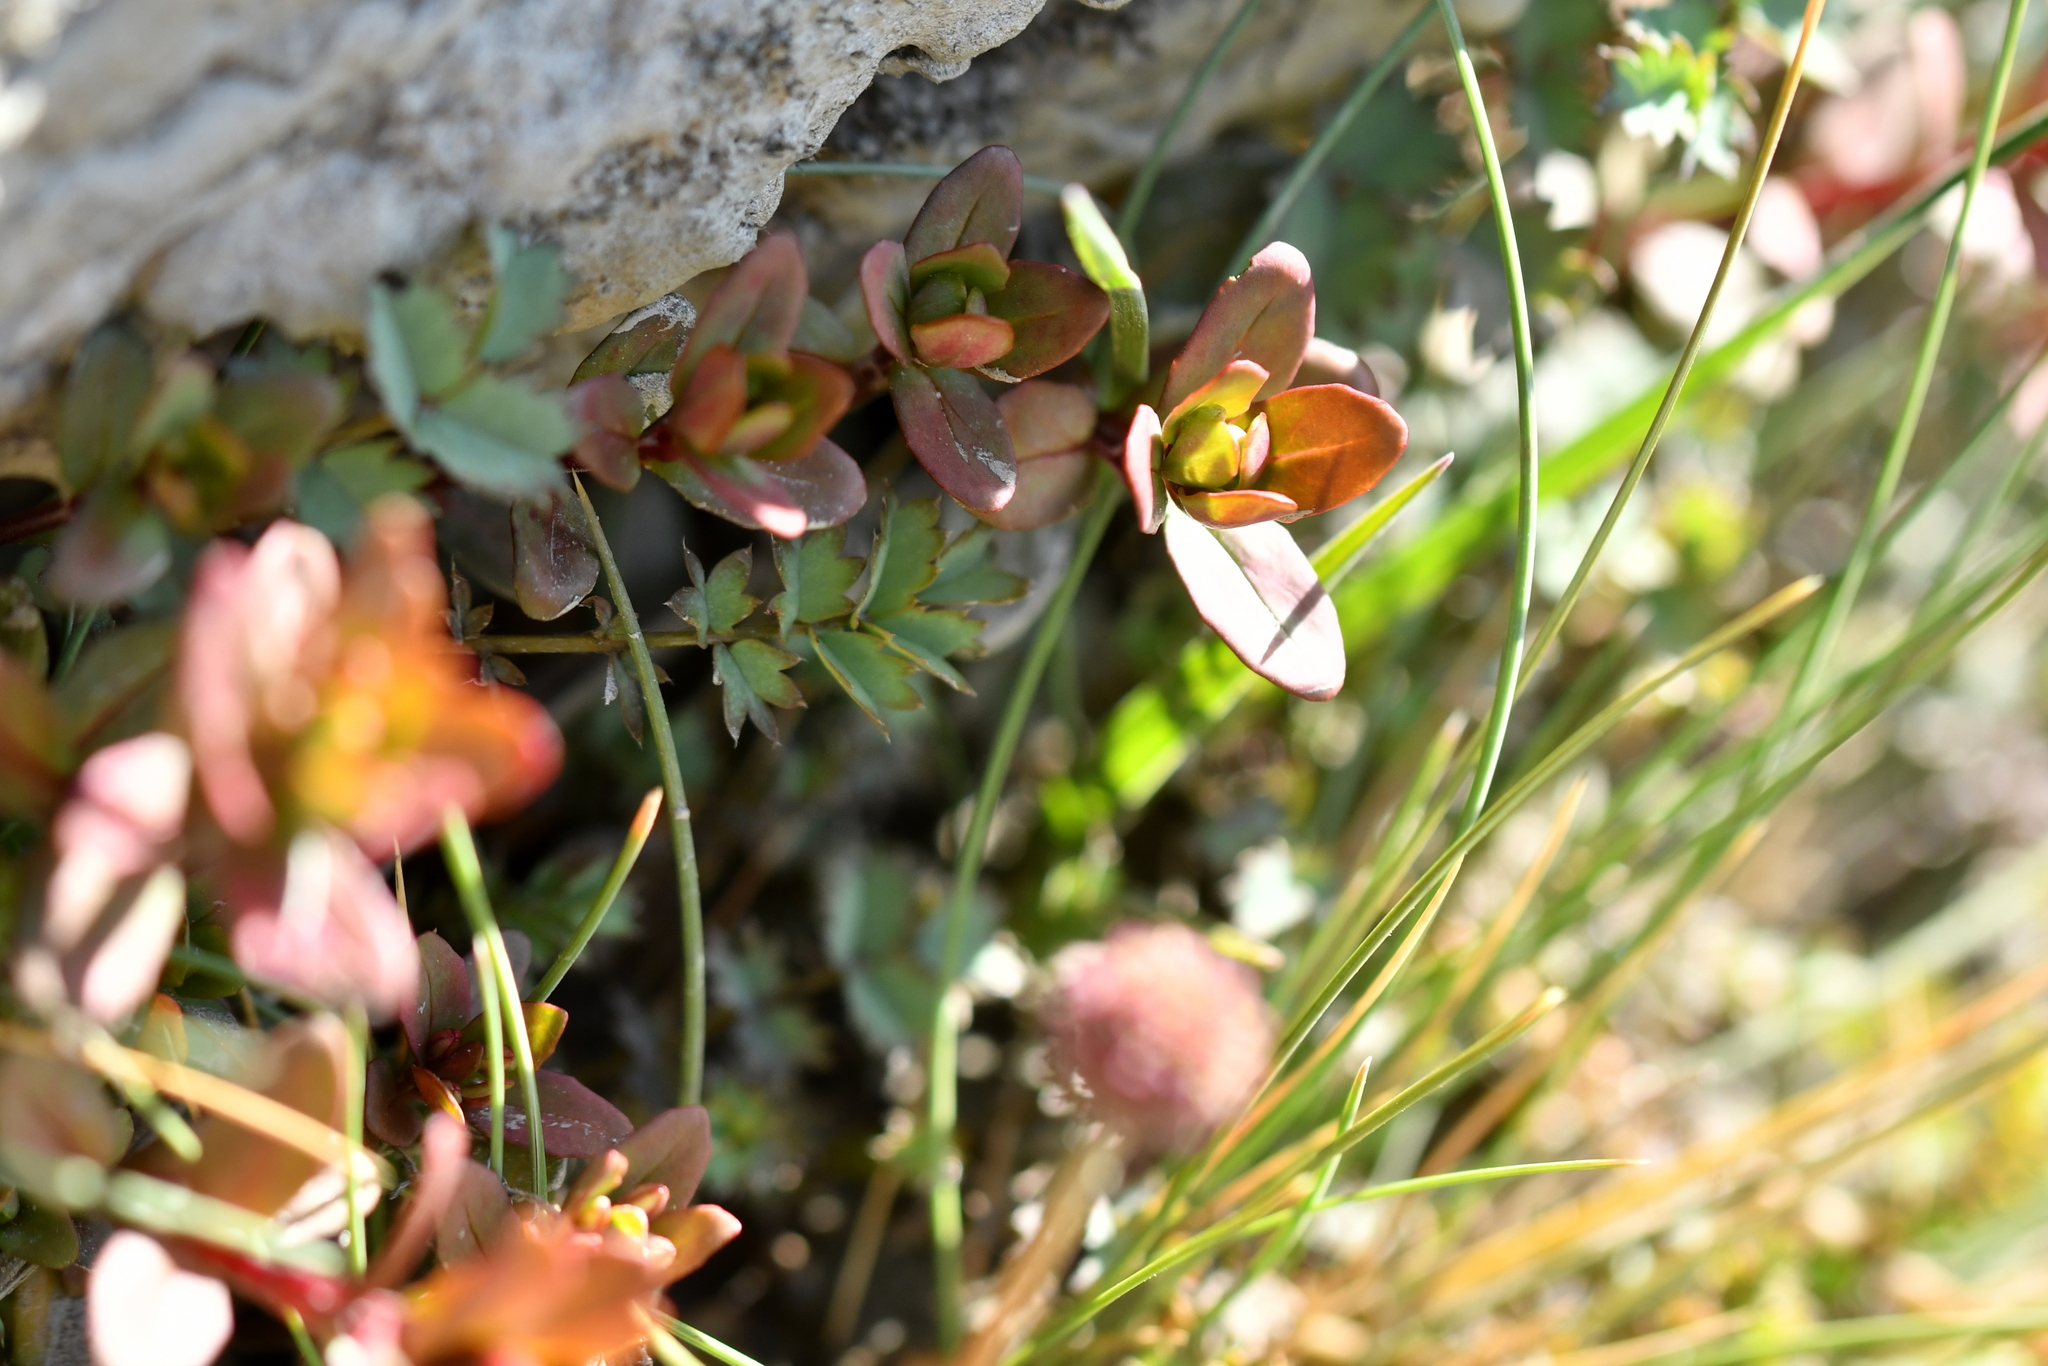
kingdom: Plantae
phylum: Tracheophyta
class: Magnoliopsida
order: Myrtales
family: Onagraceae
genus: Epilobium
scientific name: Epilobium porphyrium
